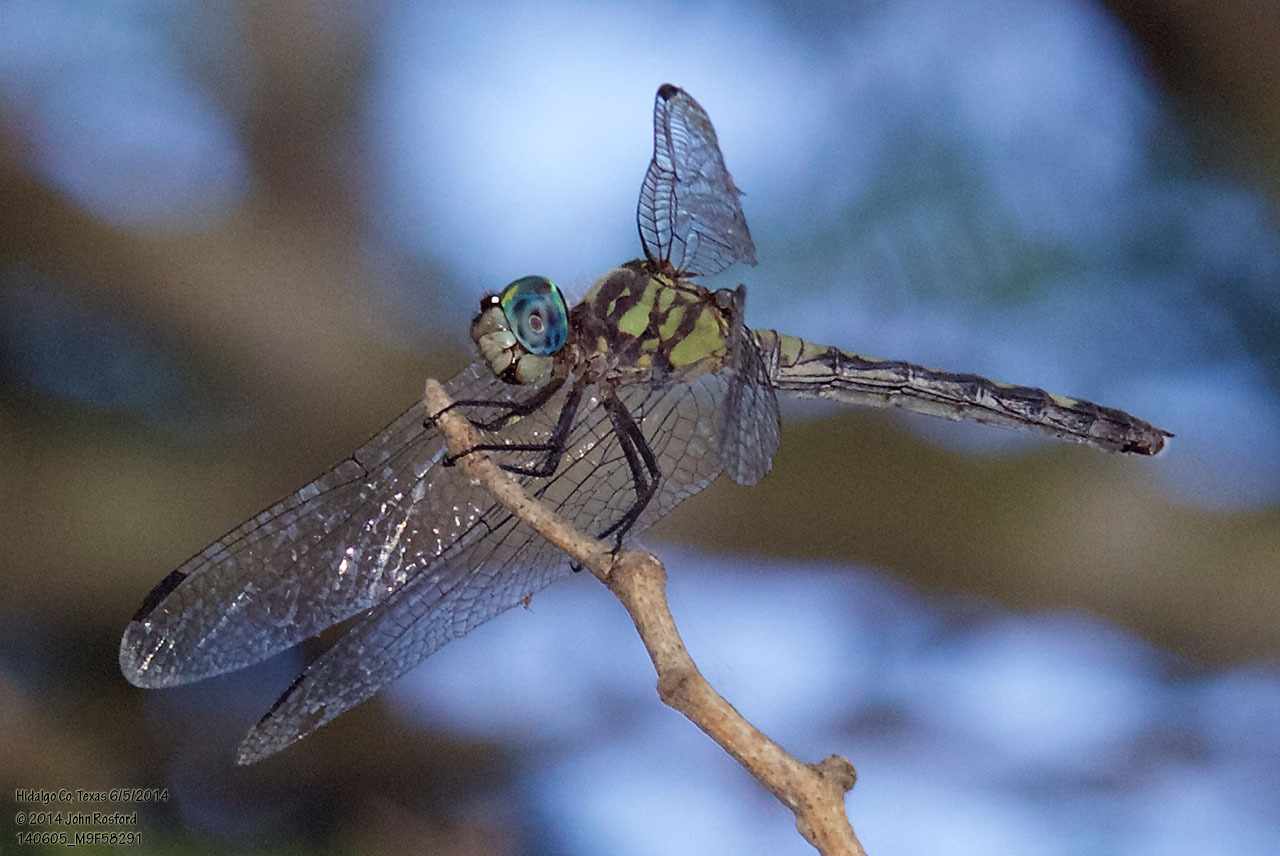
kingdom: Animalia
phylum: Arthropoda
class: Insecta
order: Odonata
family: Libellulidae
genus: Micrathyria
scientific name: Micrathyria hagenii
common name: Thornbush dasher
